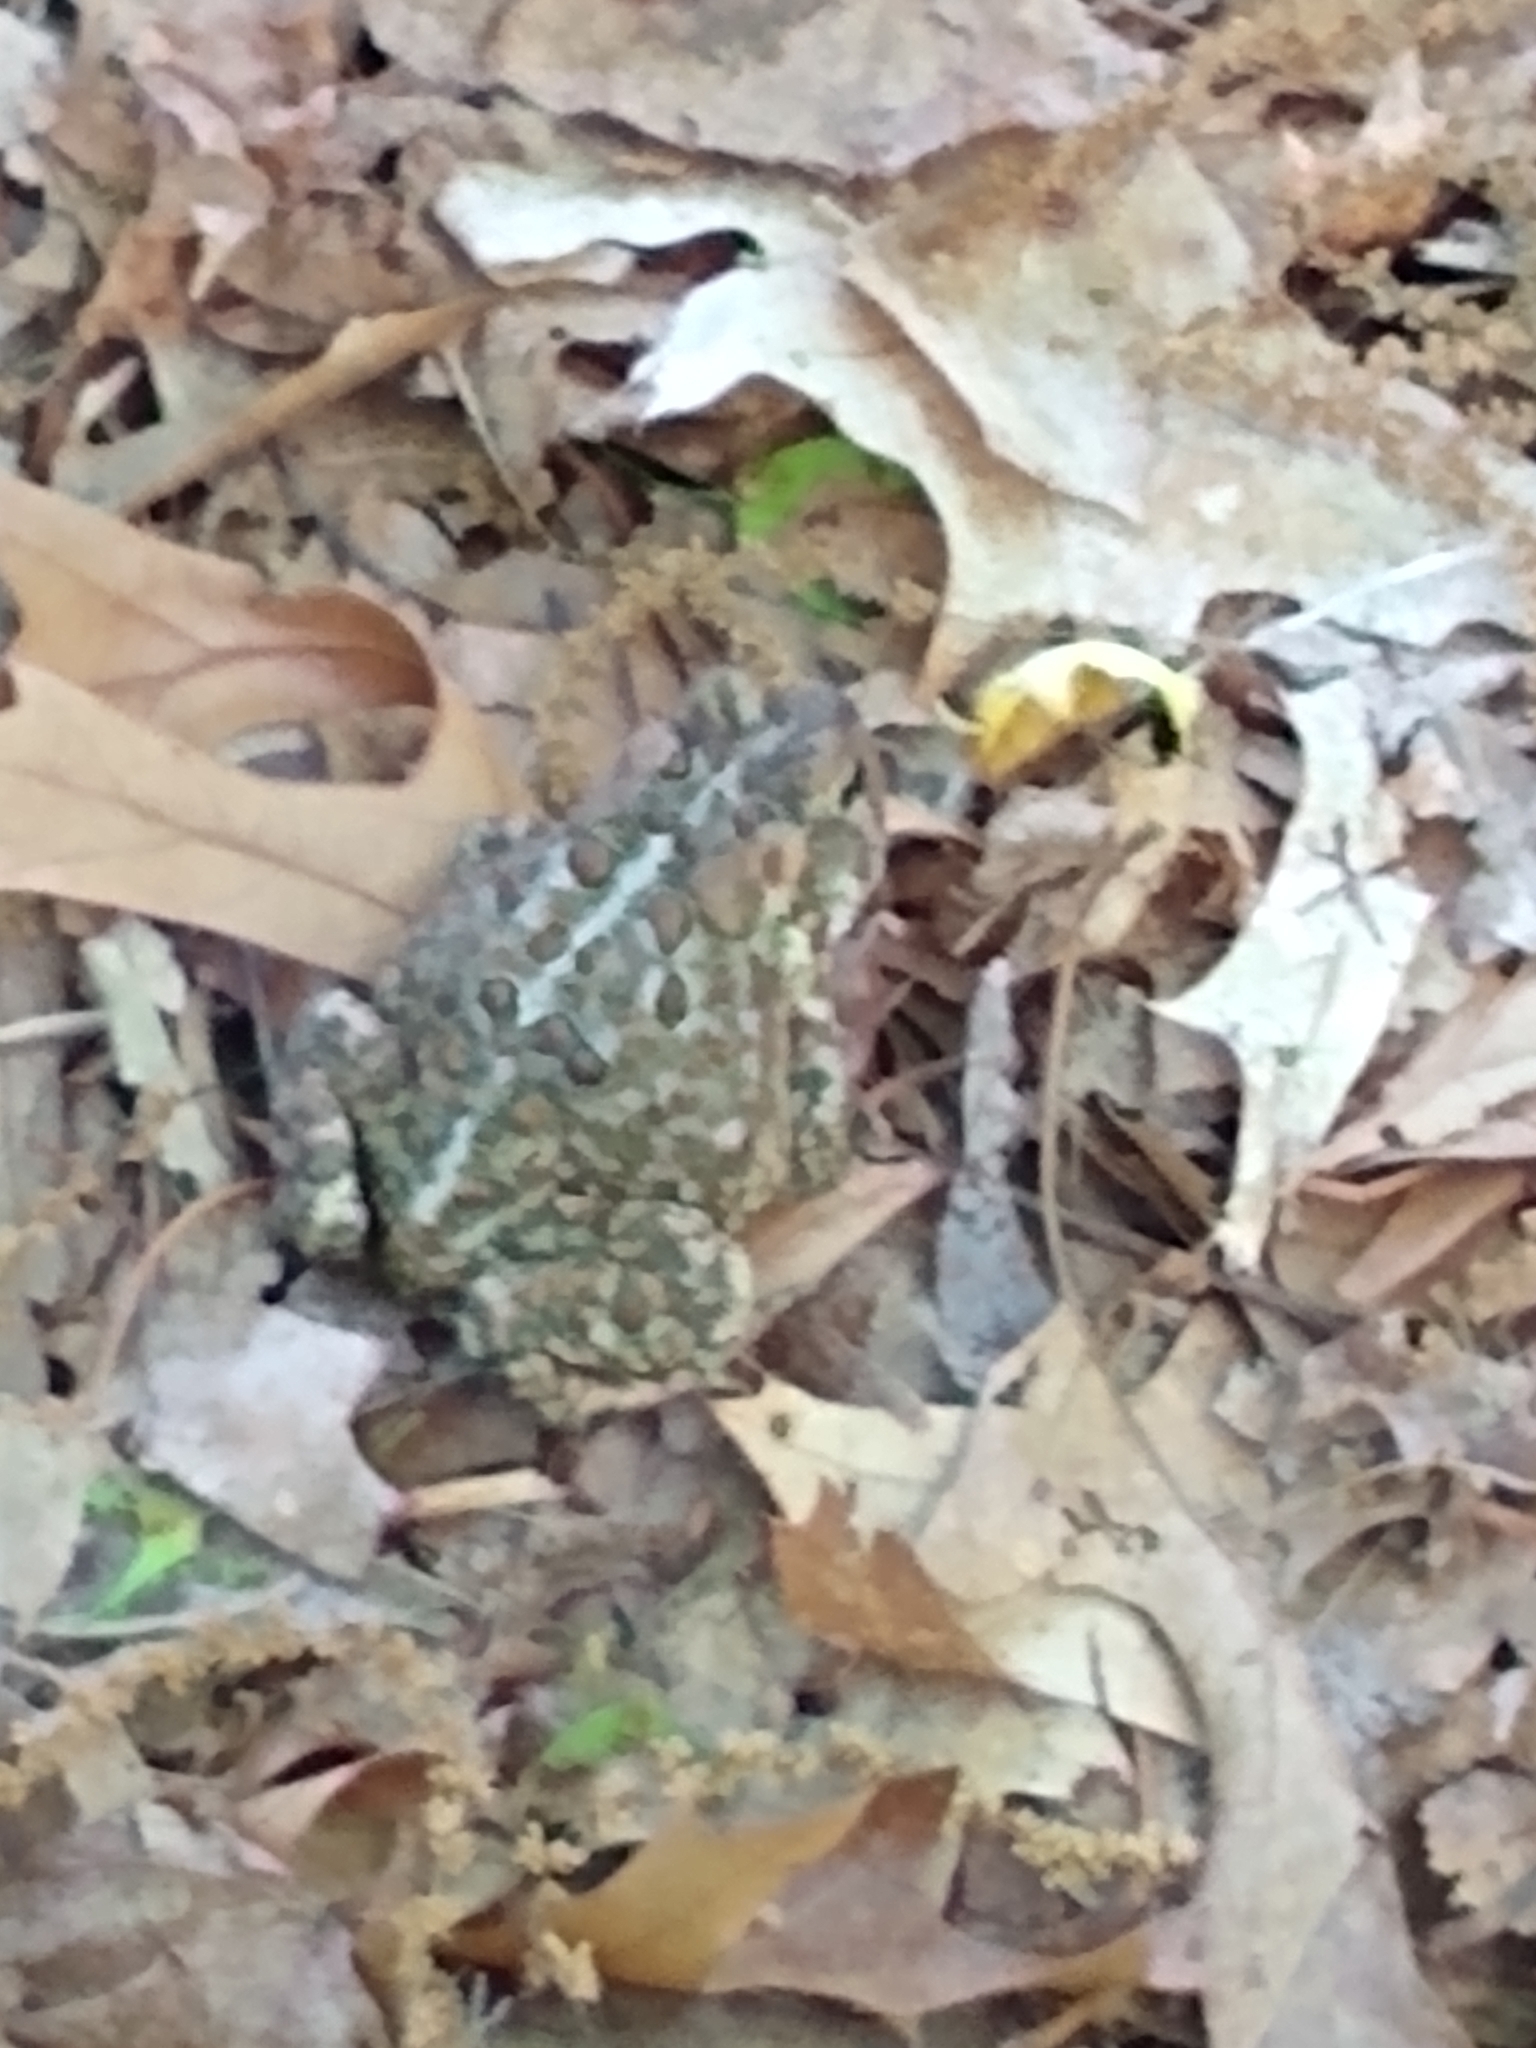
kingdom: Animalia
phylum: Chordata
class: Amphibia
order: Anura
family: Bufonidae
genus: Anaxyrus
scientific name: Anaxyrus americanus
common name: American toad
